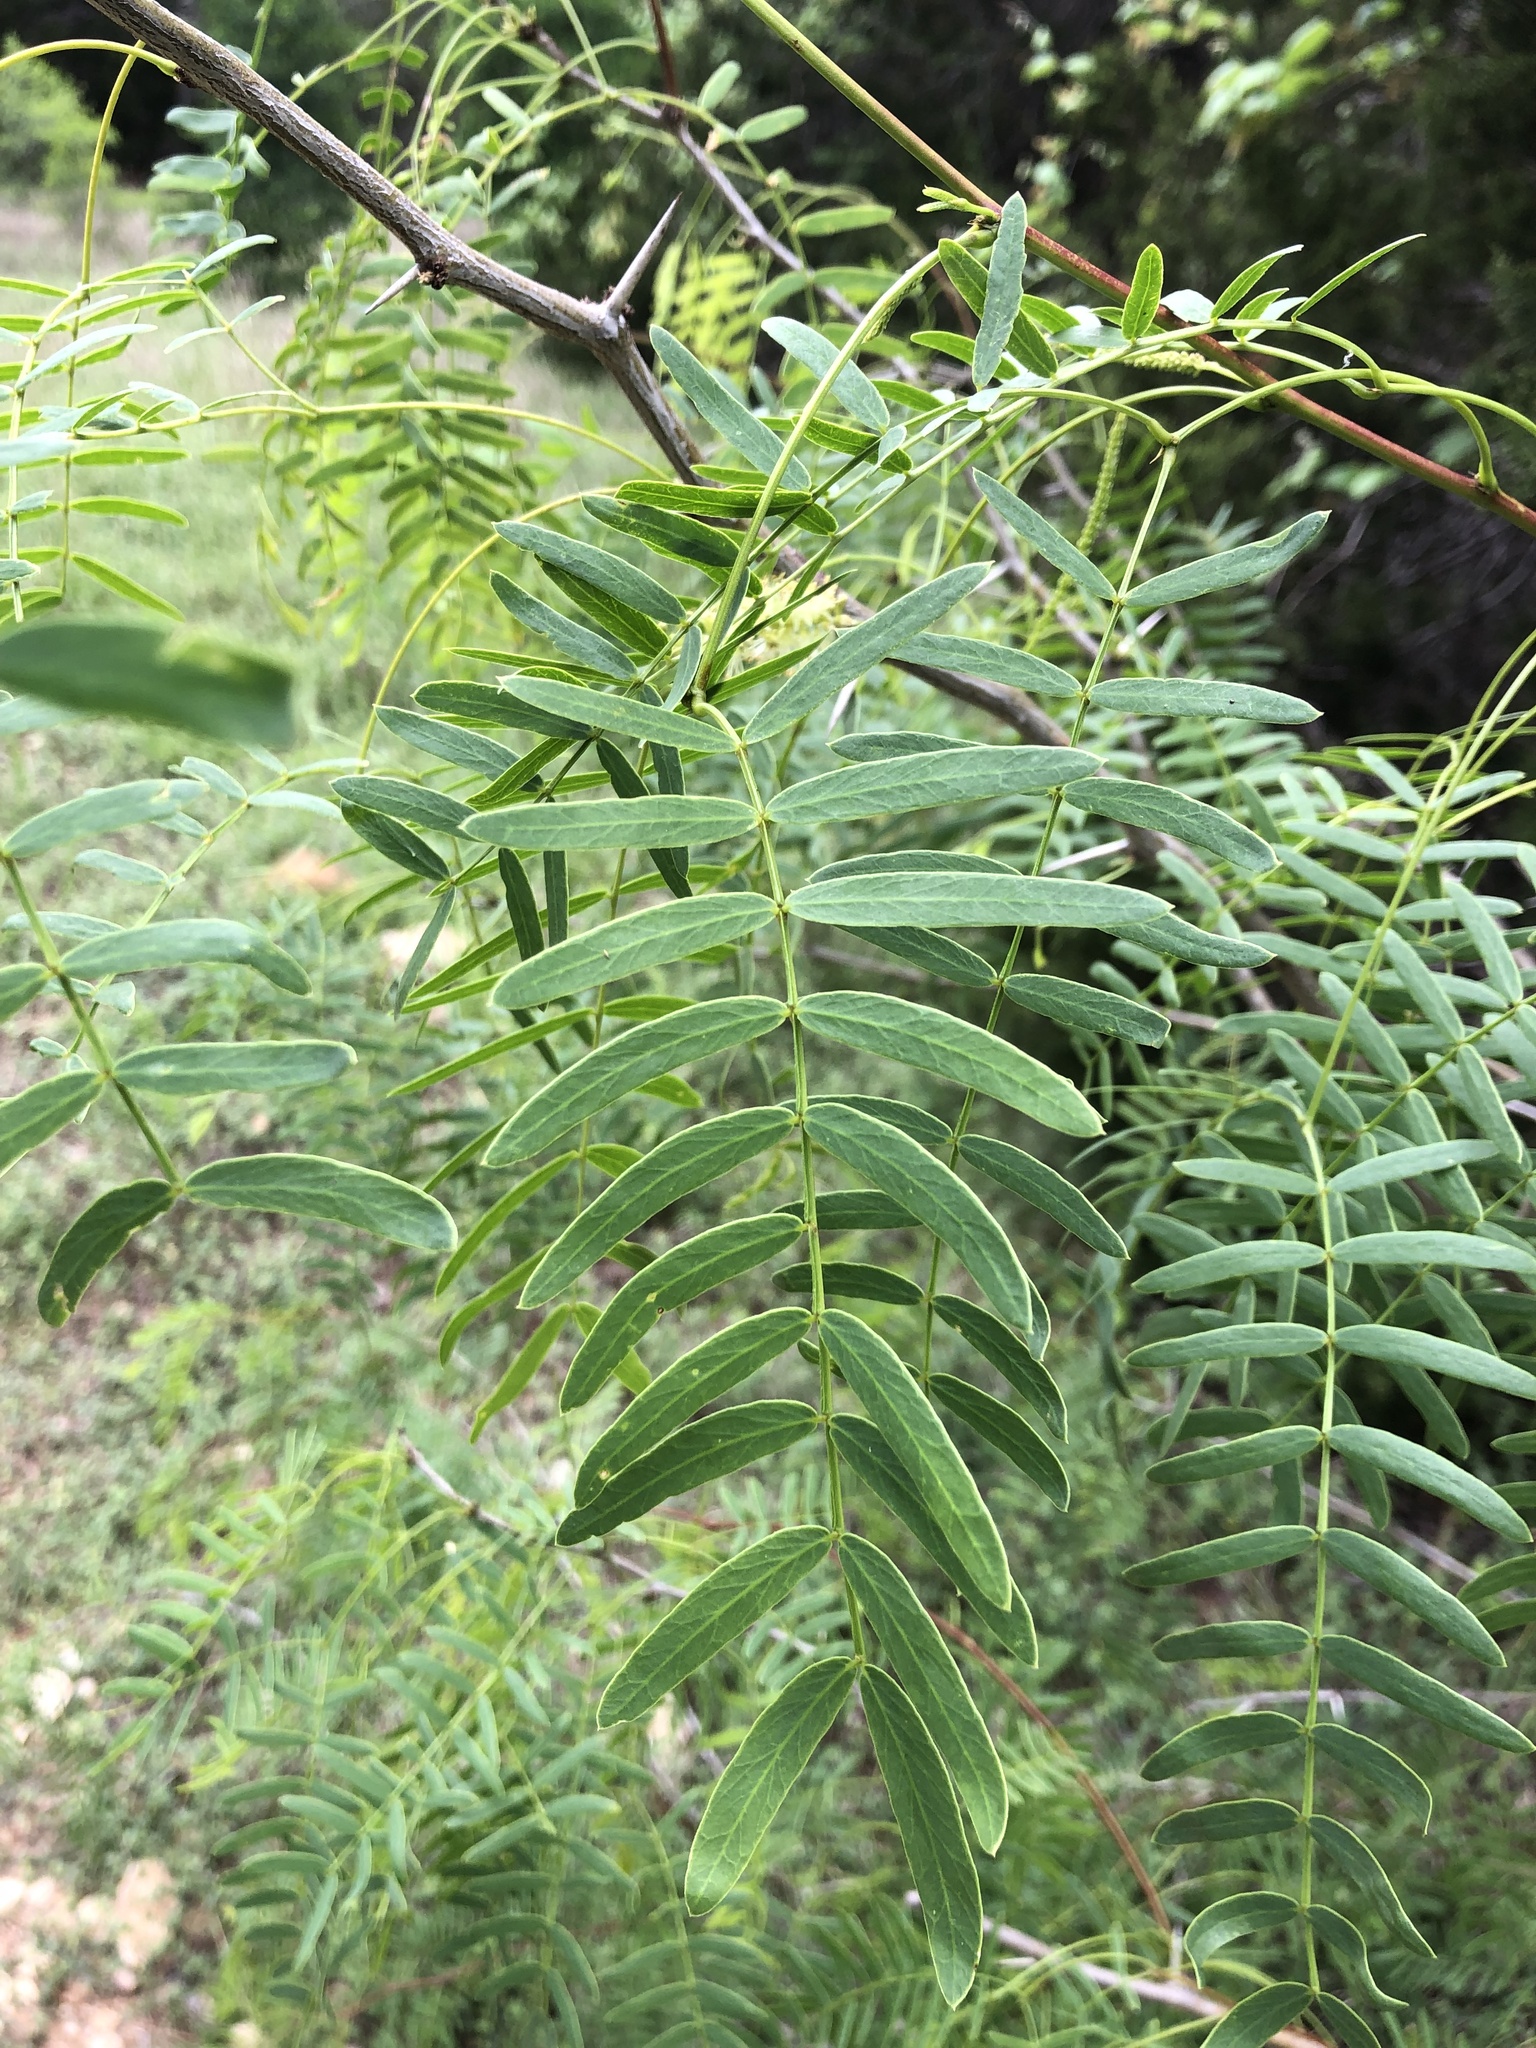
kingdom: Plantae
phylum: Tracheophyta
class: Magnoliopsida
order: Fabales
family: Fabaceae
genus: Prosopis
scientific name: Prosopis glandulosa
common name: Honey mesquite
